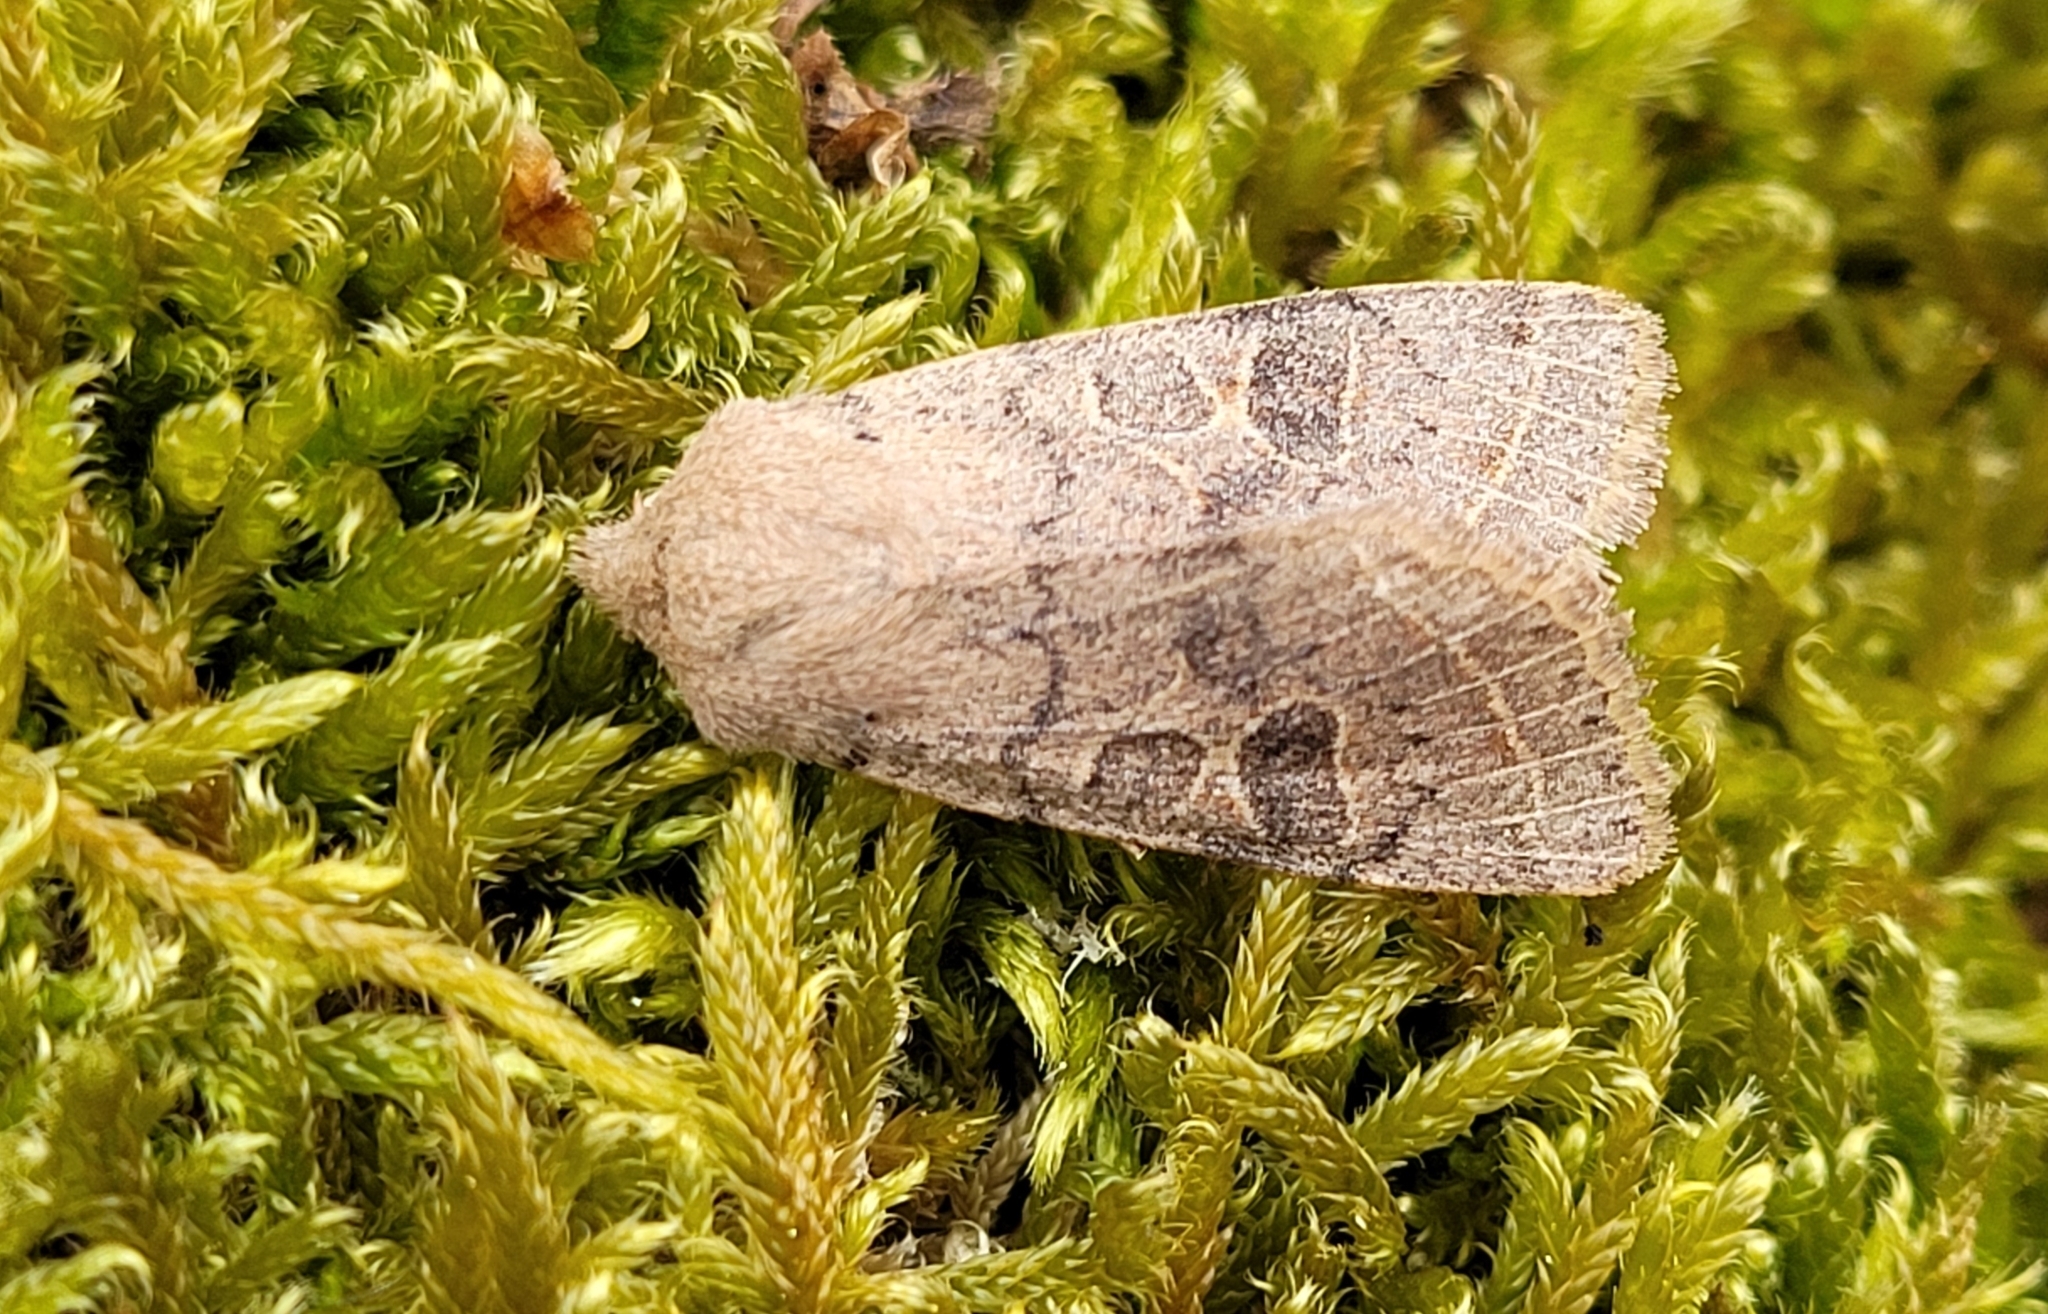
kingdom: Animalia
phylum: Arthropoda
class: Insecta
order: Lepidoptera
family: Noctuidae
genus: Orthosia
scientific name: Orthosia cerasi
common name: Common quaker
